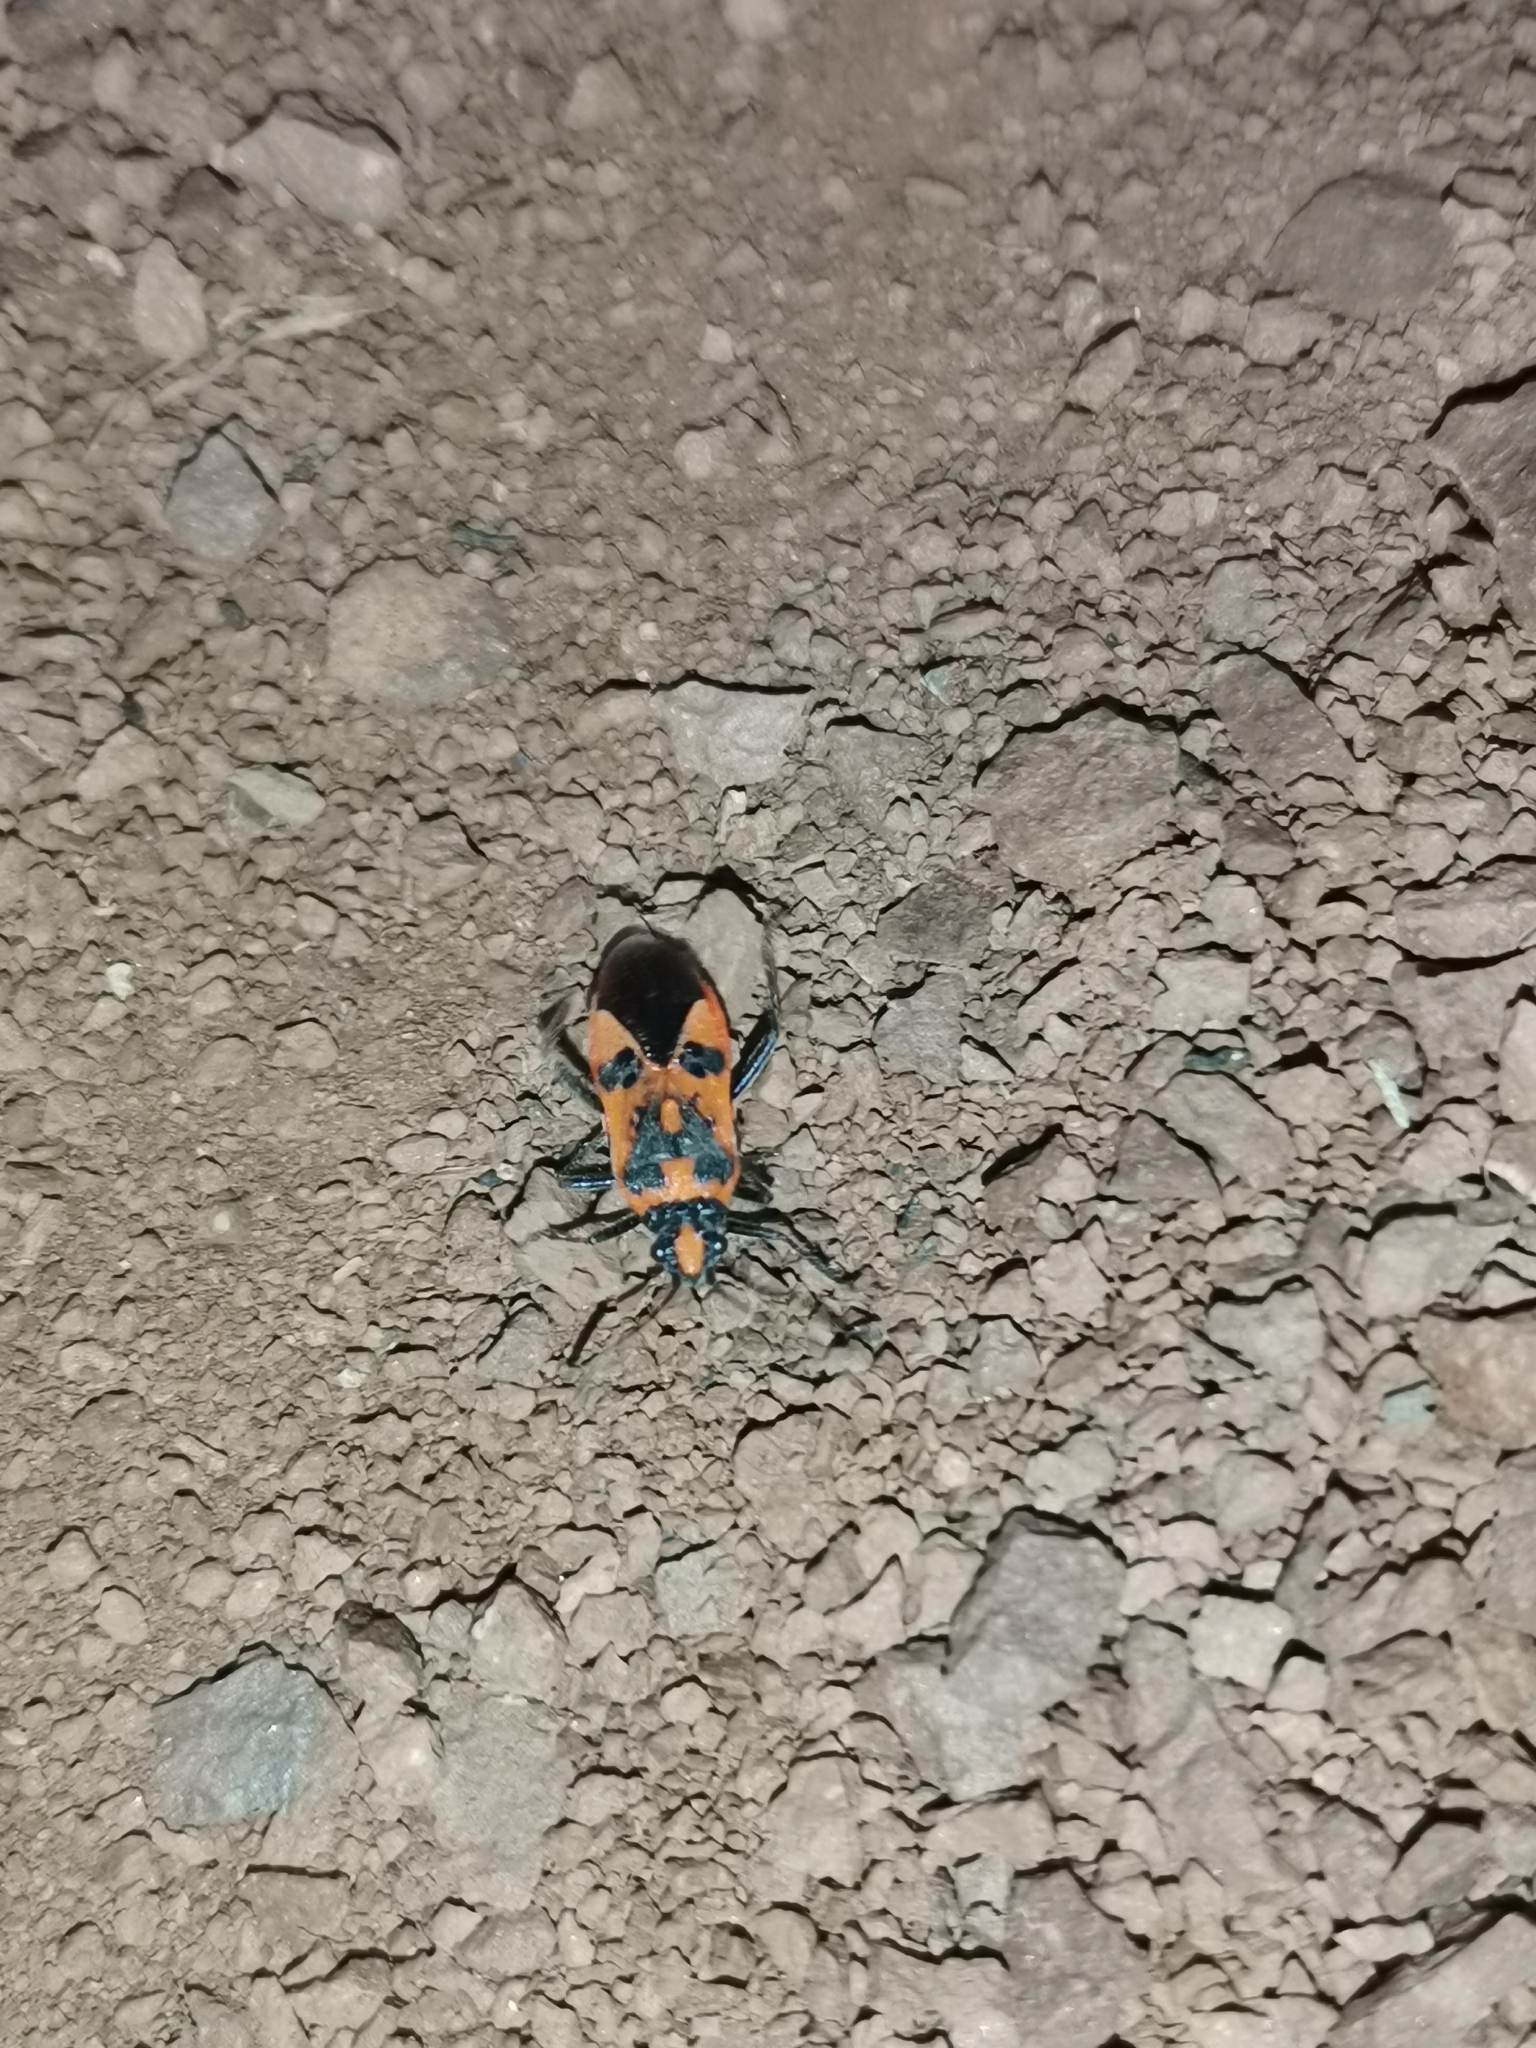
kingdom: Animalia
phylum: Arthropoda
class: Insecta
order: Hemiptera
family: Rhopalidae
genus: Corizus
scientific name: Corizus hyoscyami
